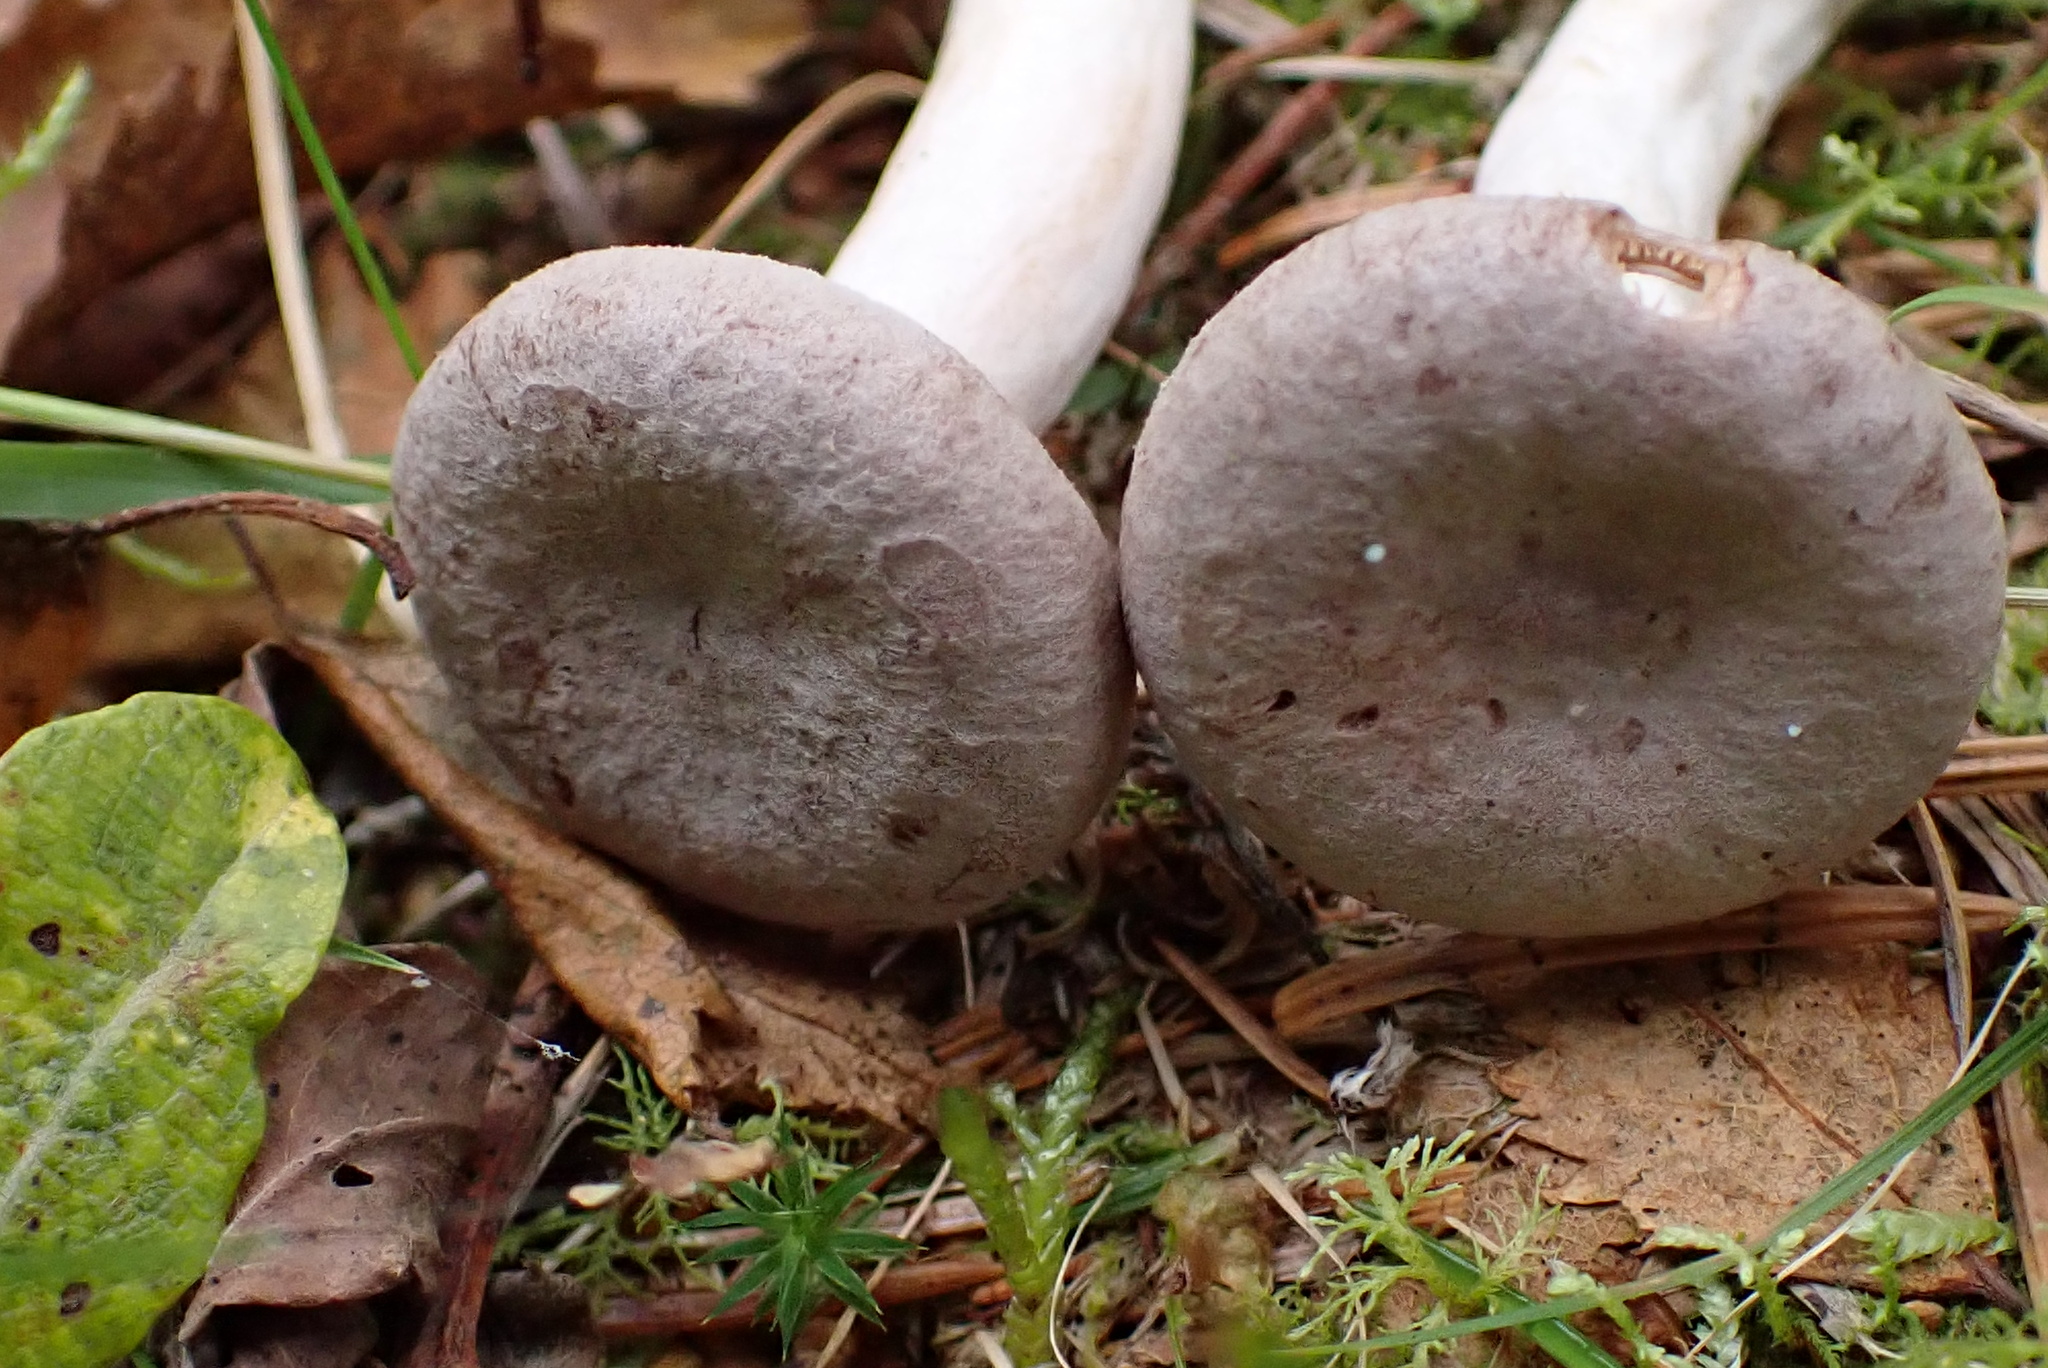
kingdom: Fungi
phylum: Basidiomycota
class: Agaricomycetes
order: Russulales
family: Russulaceae
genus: Lactarius
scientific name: Lactarius glyciosmus
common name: Coconut milkcap
